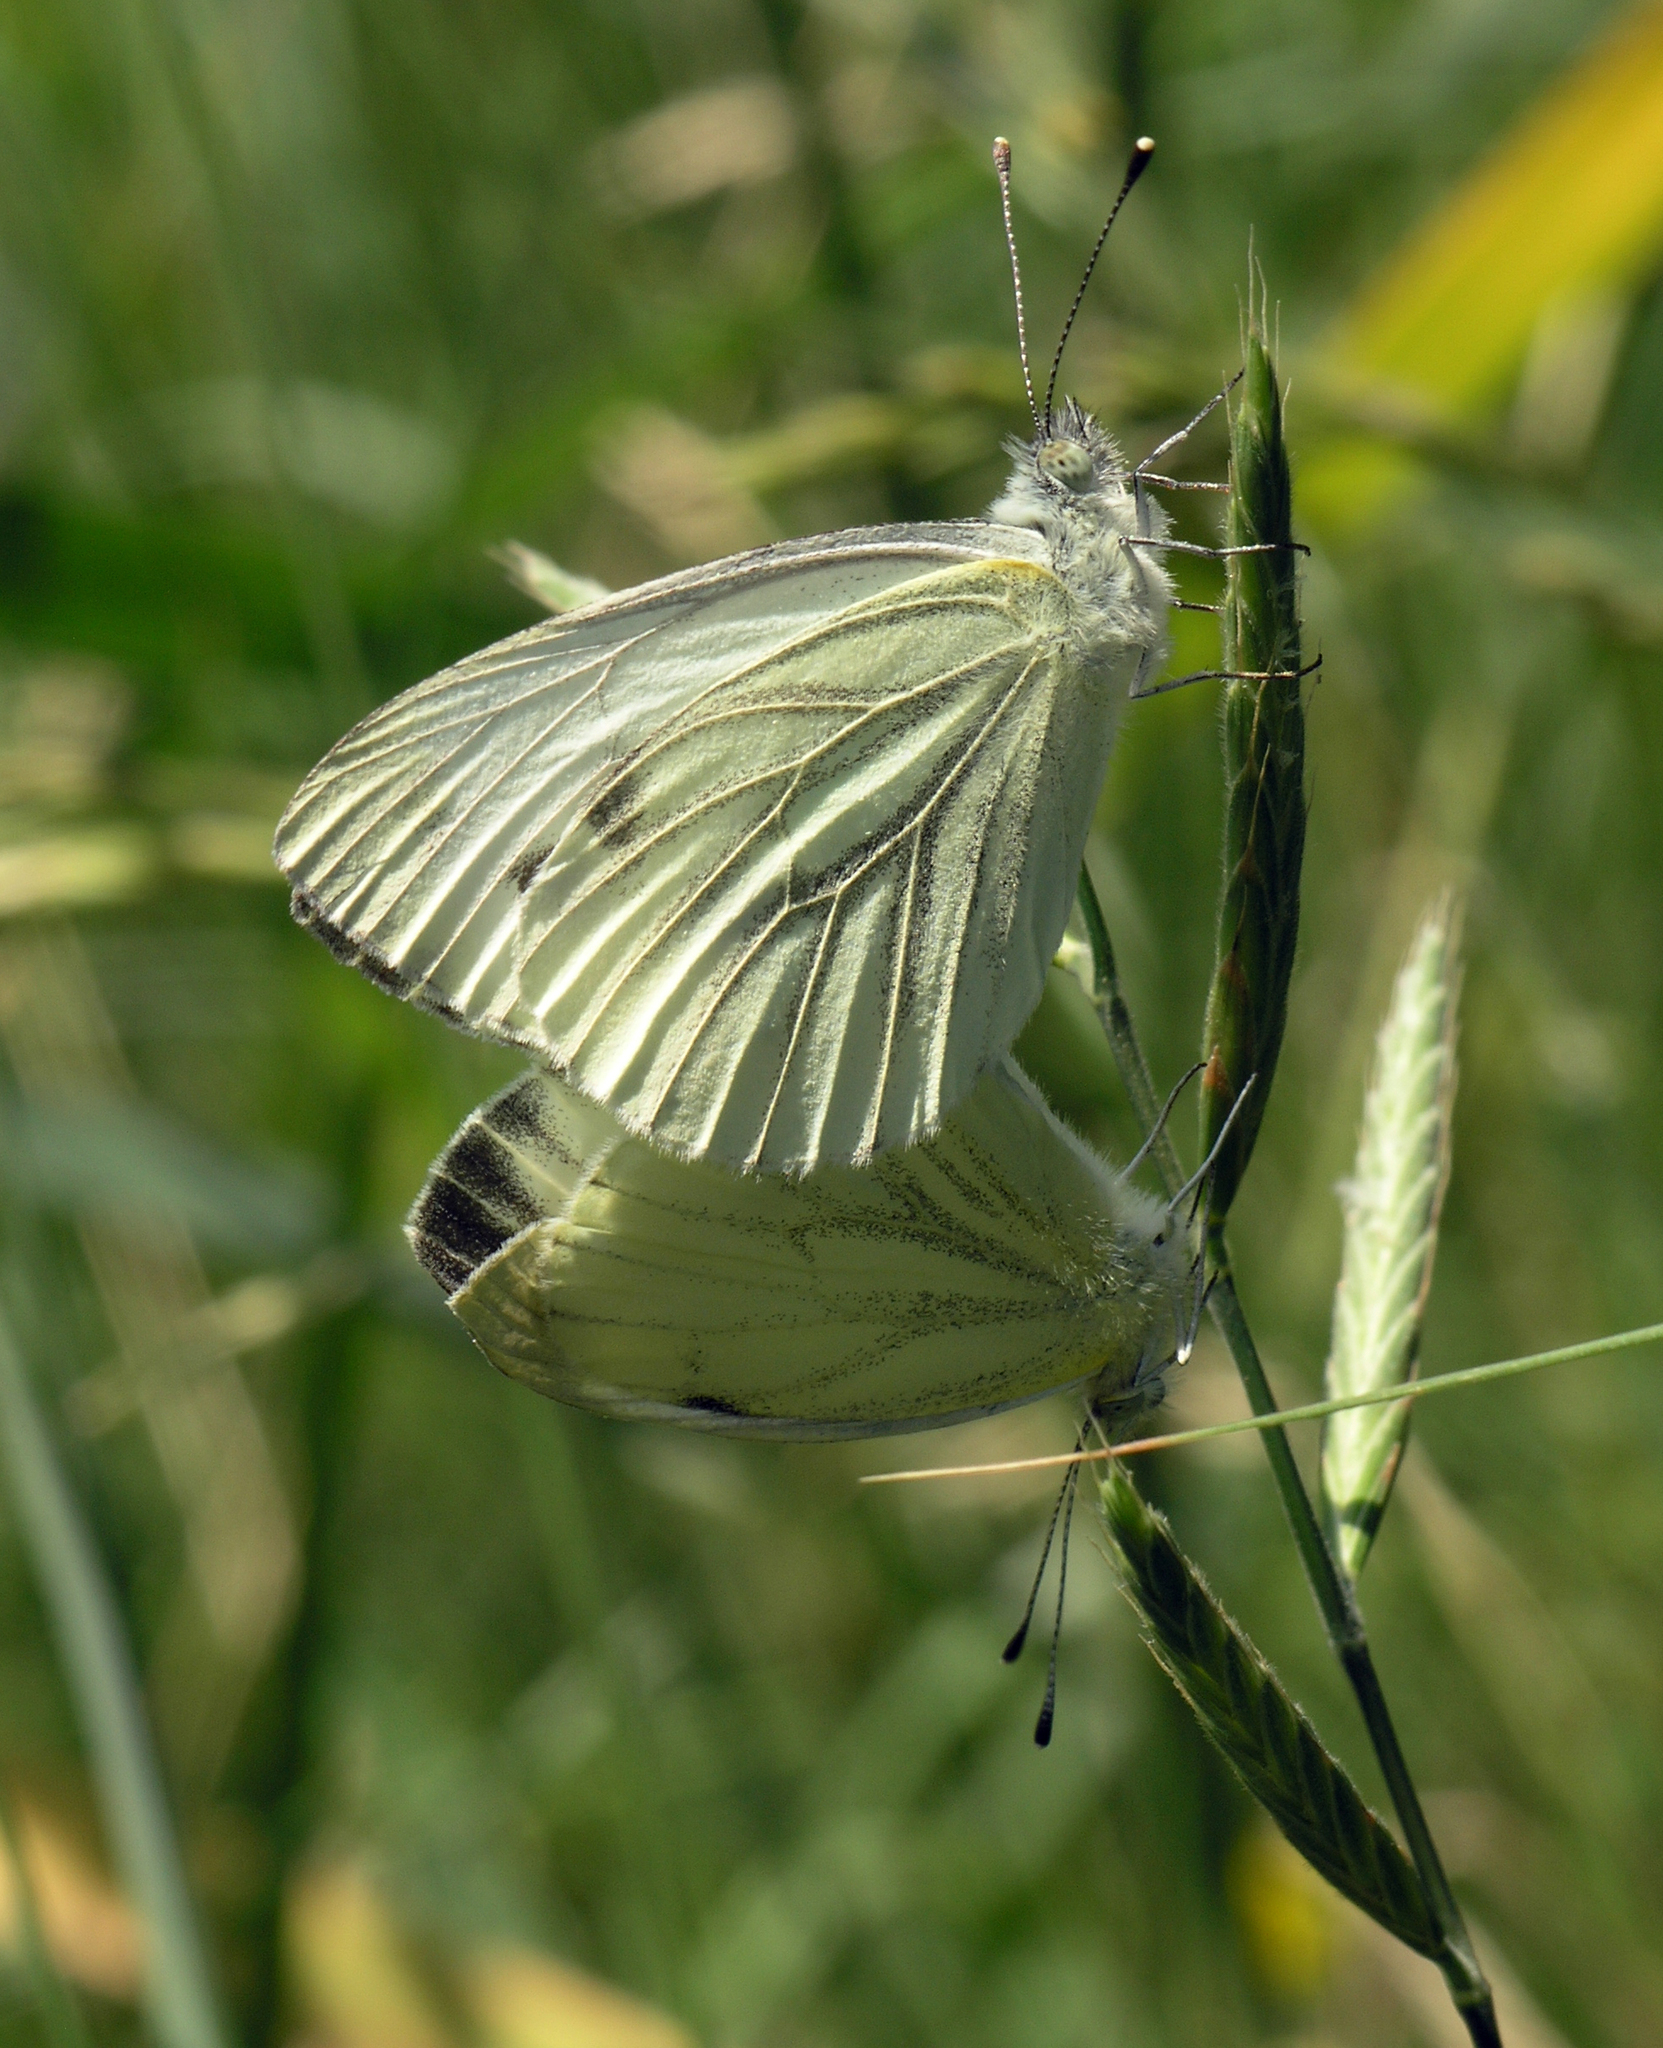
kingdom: Animalia
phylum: Arthropoda
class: Insecta
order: Lepidoptera
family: Pieridae
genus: Pieris
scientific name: Pieris napi
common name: Green-veined white
